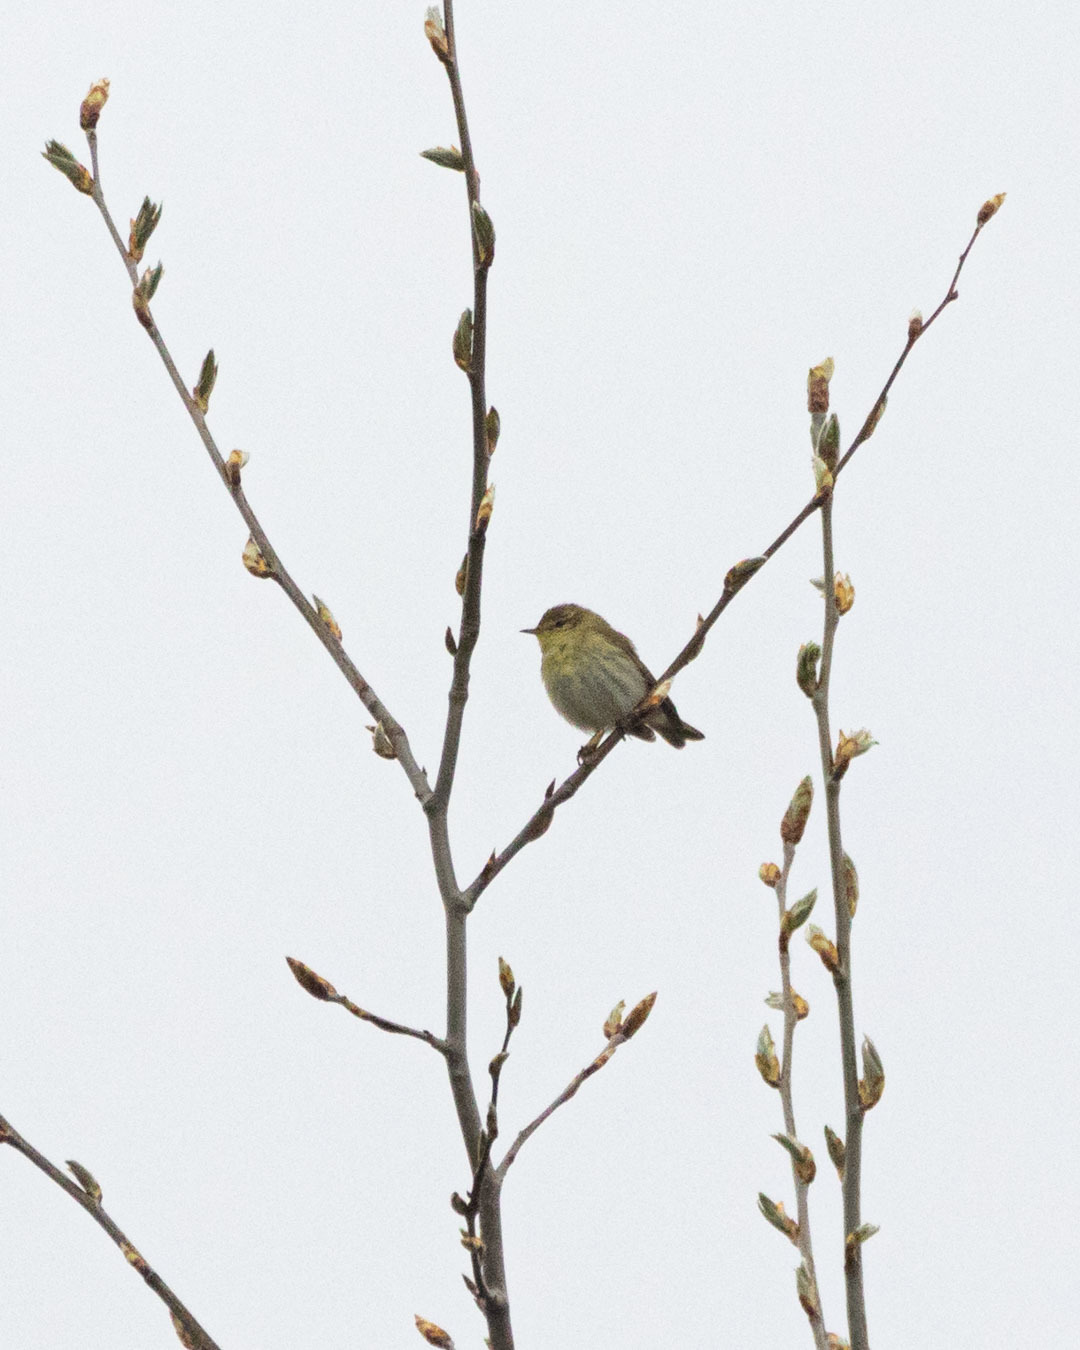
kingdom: Animalia
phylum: Chordata
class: Aves
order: Passeriformes
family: Phylloscopidae
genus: Phylloscopus
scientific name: Phylloscopus trochilus
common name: Willow warbler
